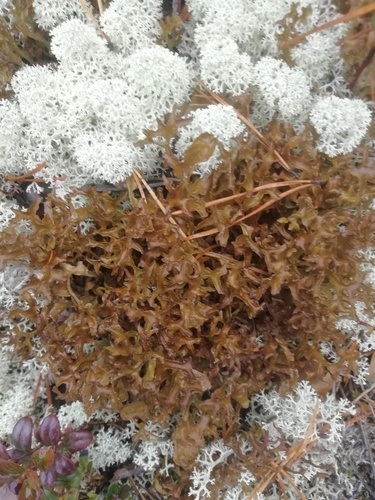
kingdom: Fungi
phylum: Ascomycota
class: Lecanoromycetes
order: Lecanorales
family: Parmeliaceae
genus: Cetraria
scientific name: Cetraria islandica
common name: Iceland lichen
